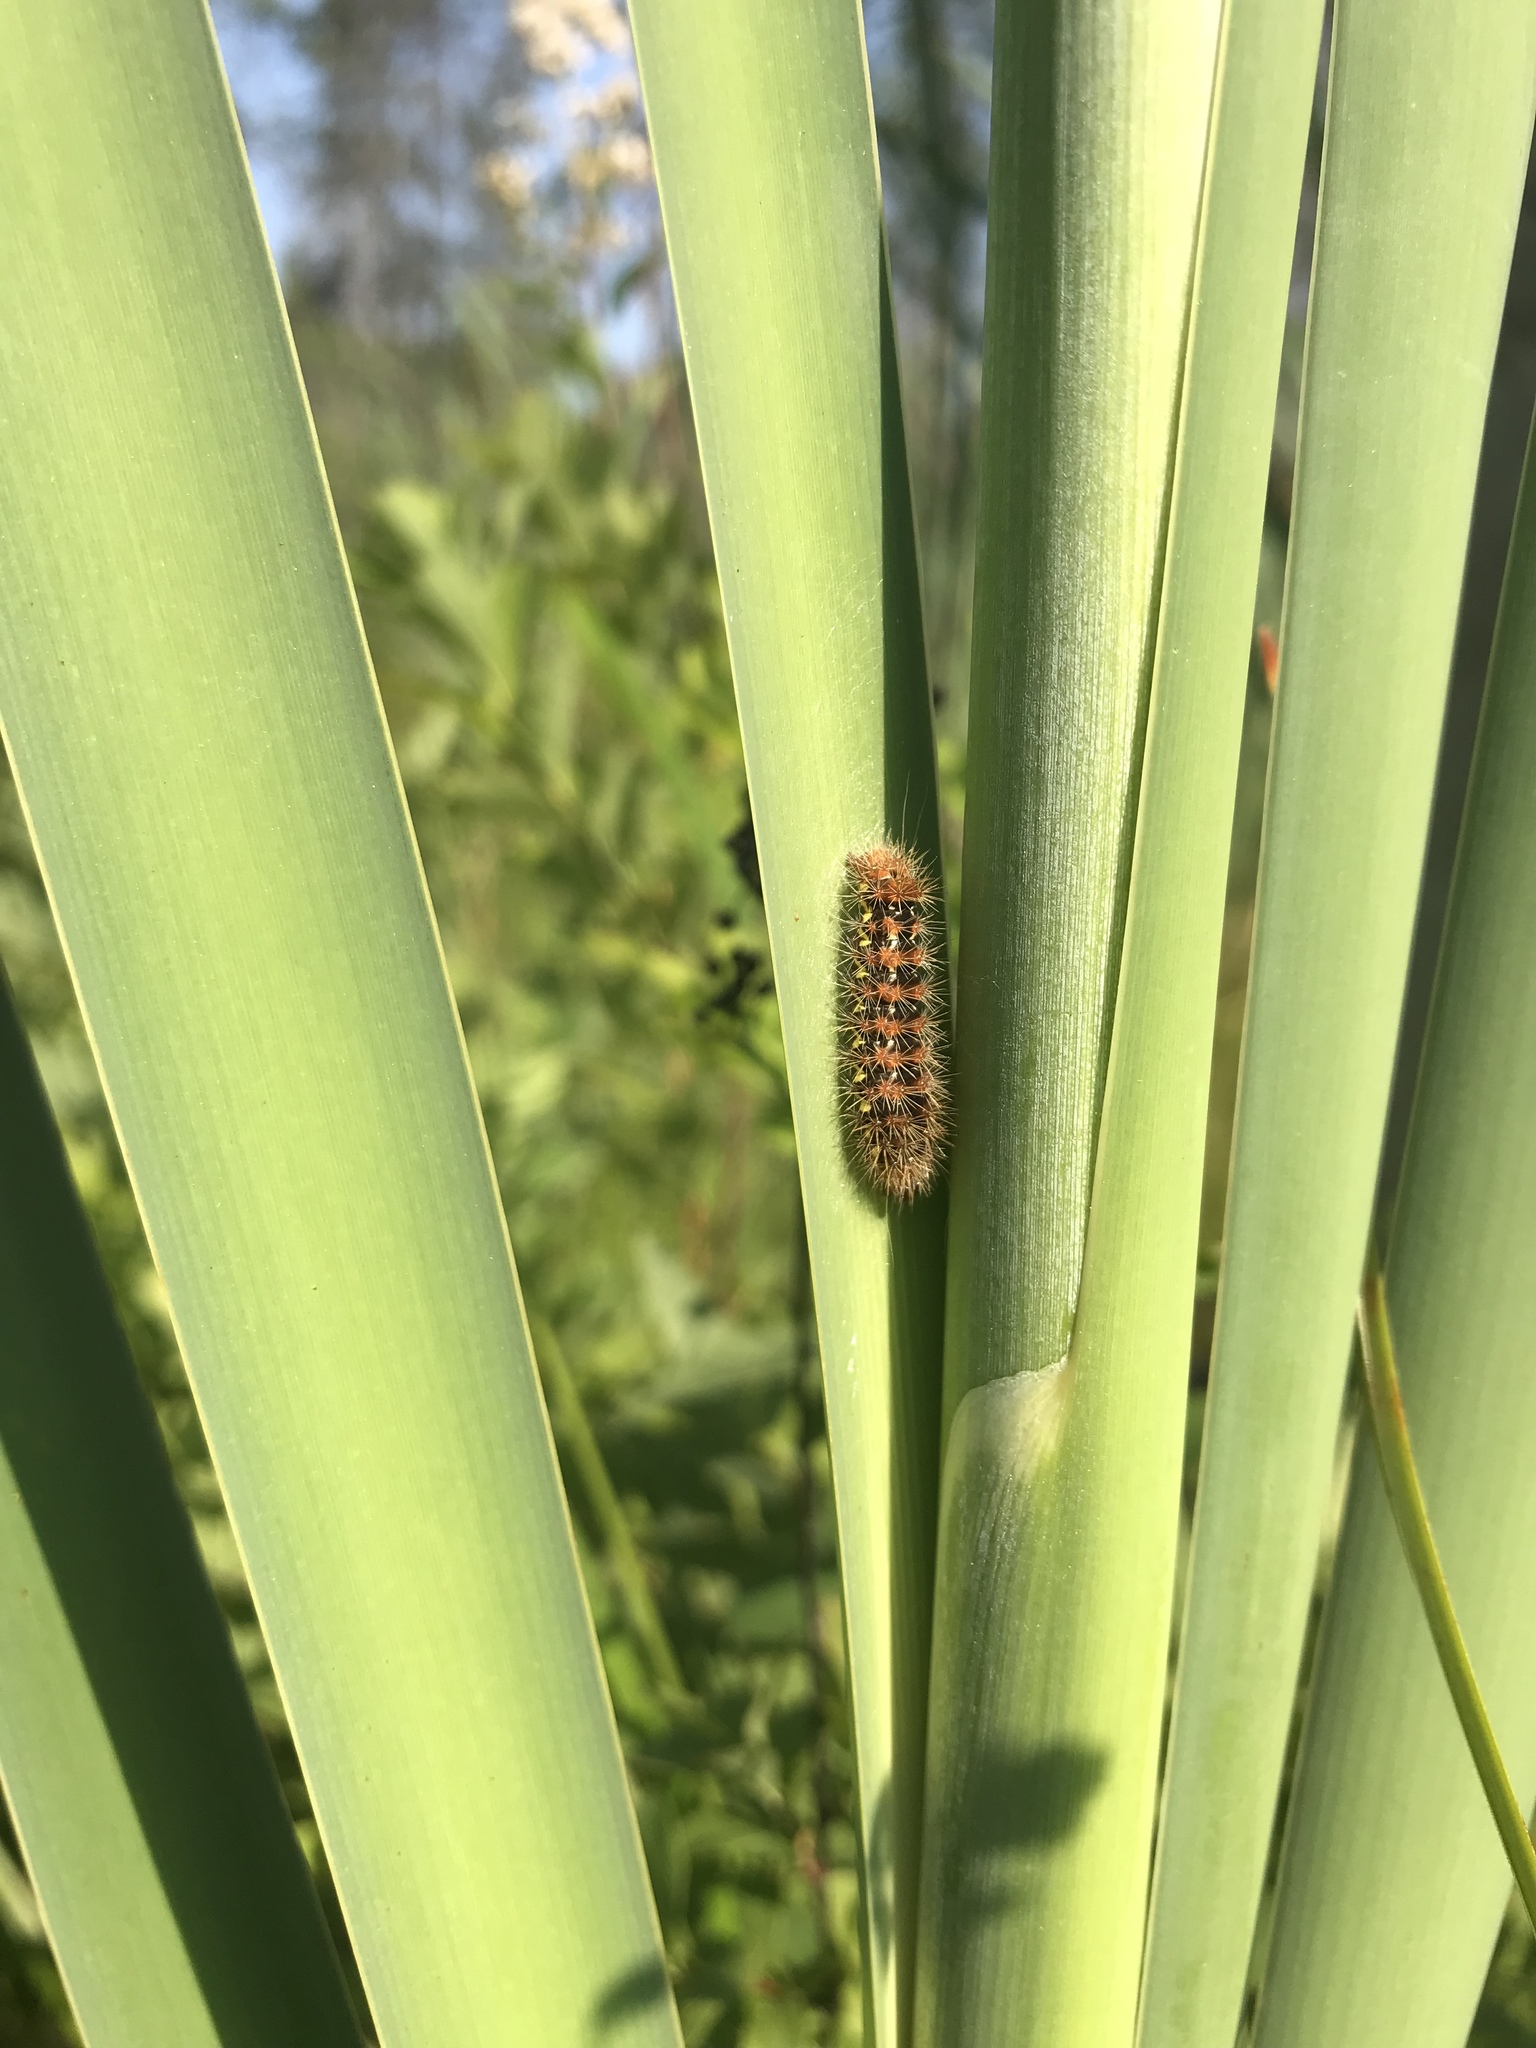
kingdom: Animalia
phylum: Arthropoda
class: Insecta
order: Lepidoptera
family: Noctuidae
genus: Acronicta
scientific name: Acronicta oblinita
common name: Smeared dagger
